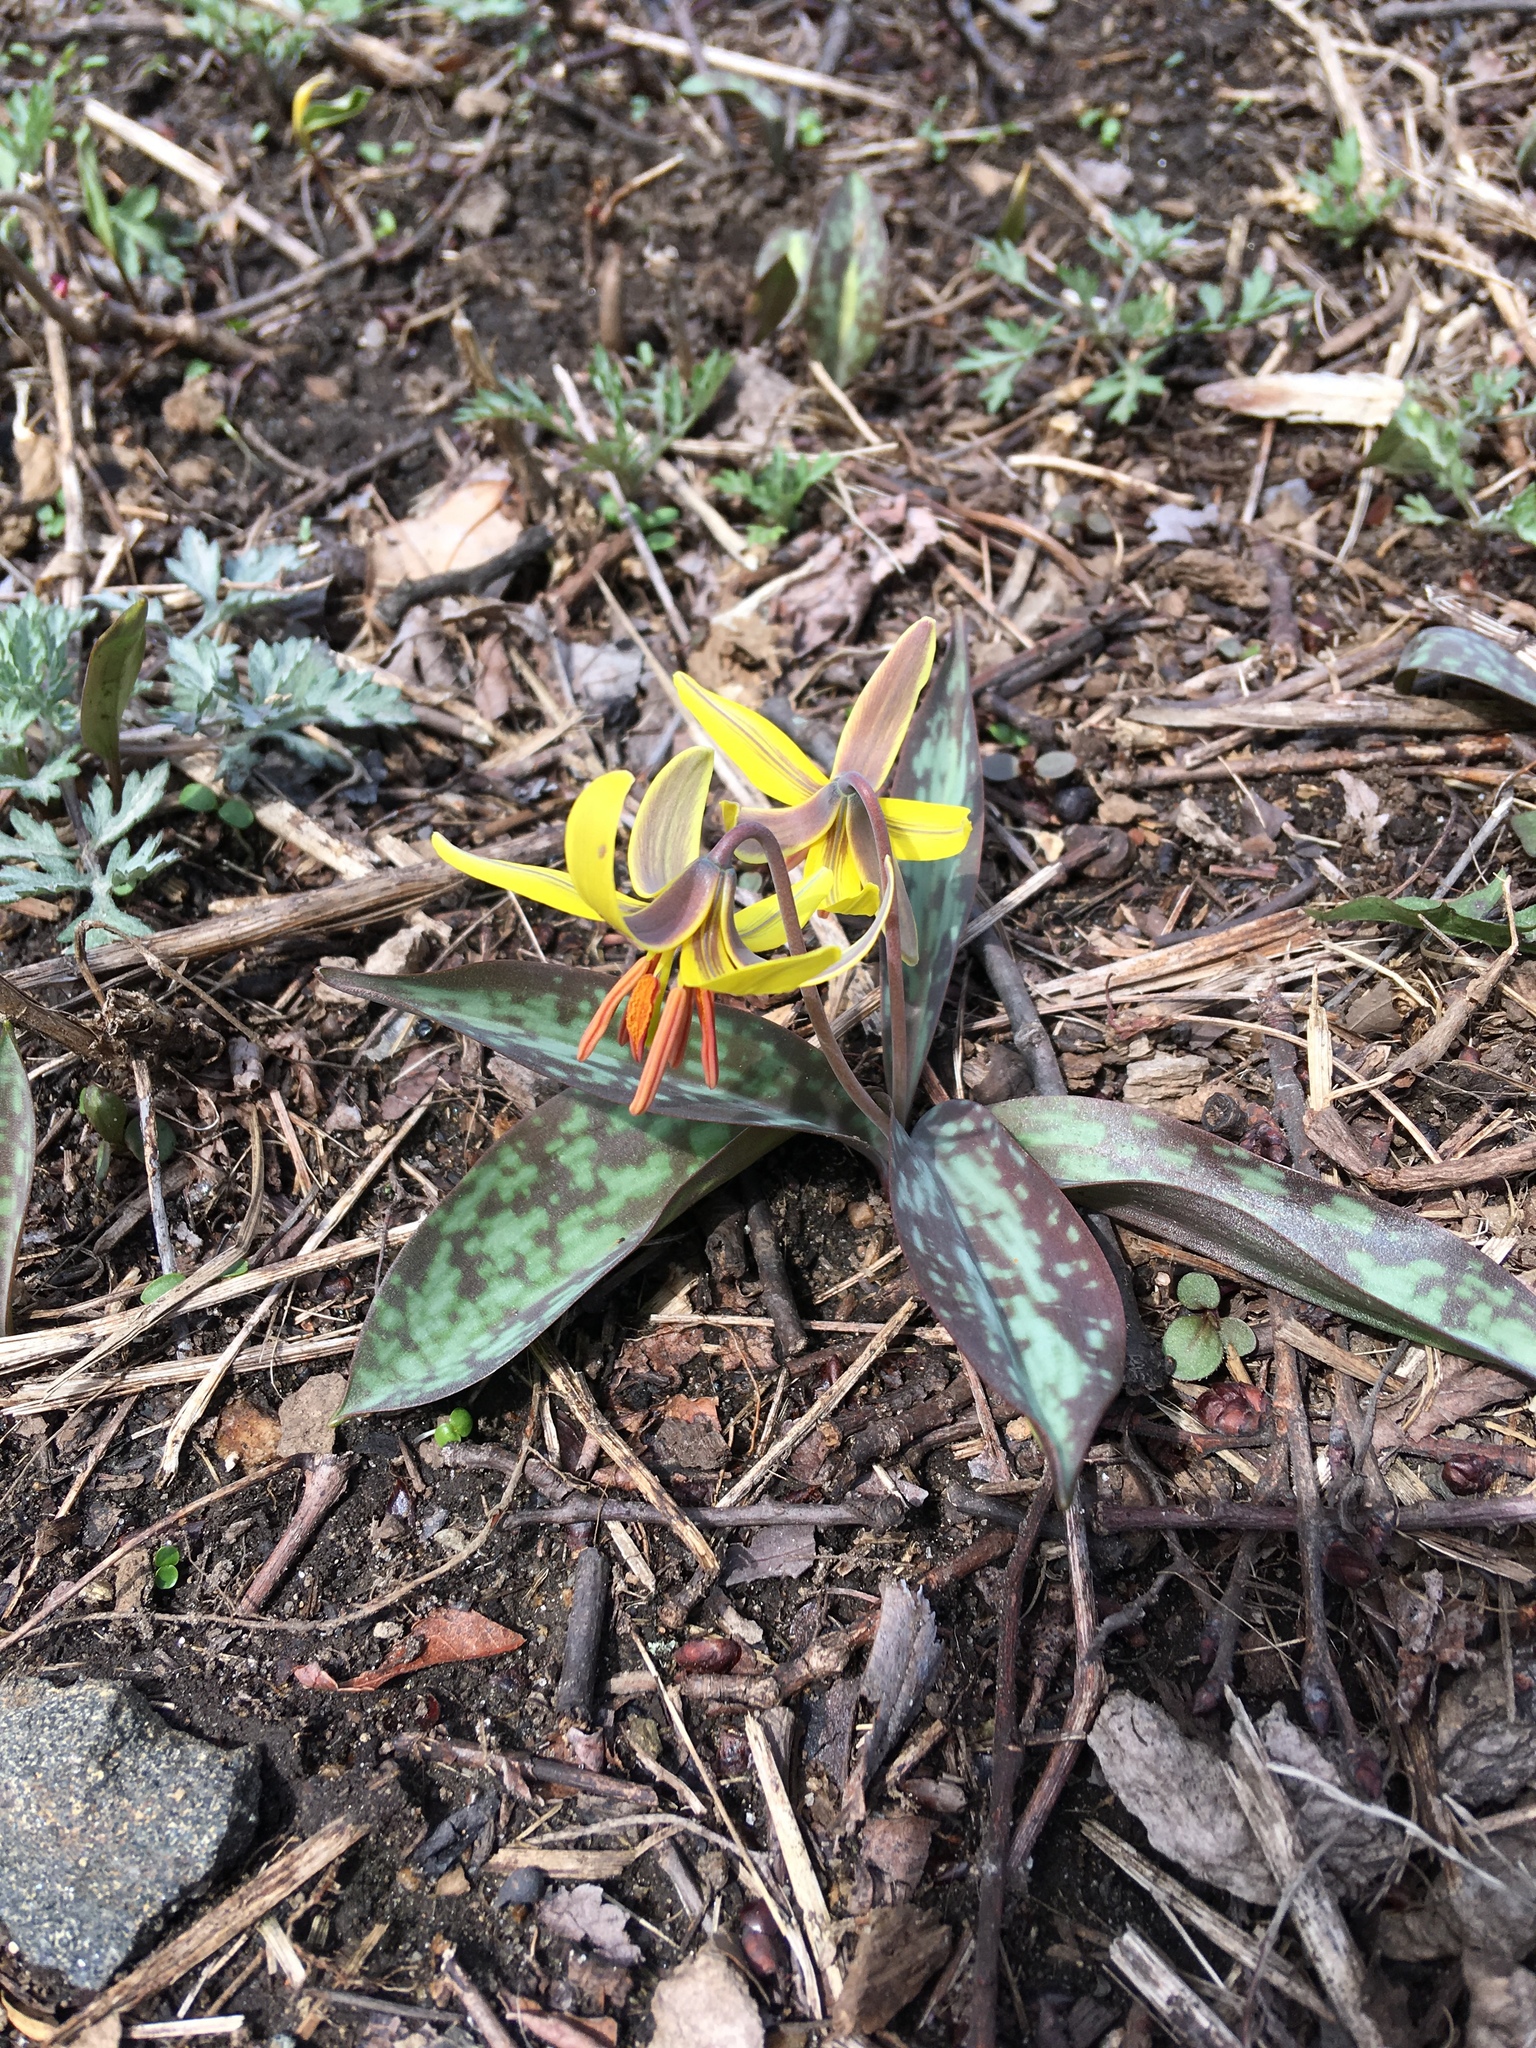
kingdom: Plantae
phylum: Tracheophyta
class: Liliopsida
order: Liliales
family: Liliaceae
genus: Erythronium
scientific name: Erythronium americanum
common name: Yellow adder's-tongue
